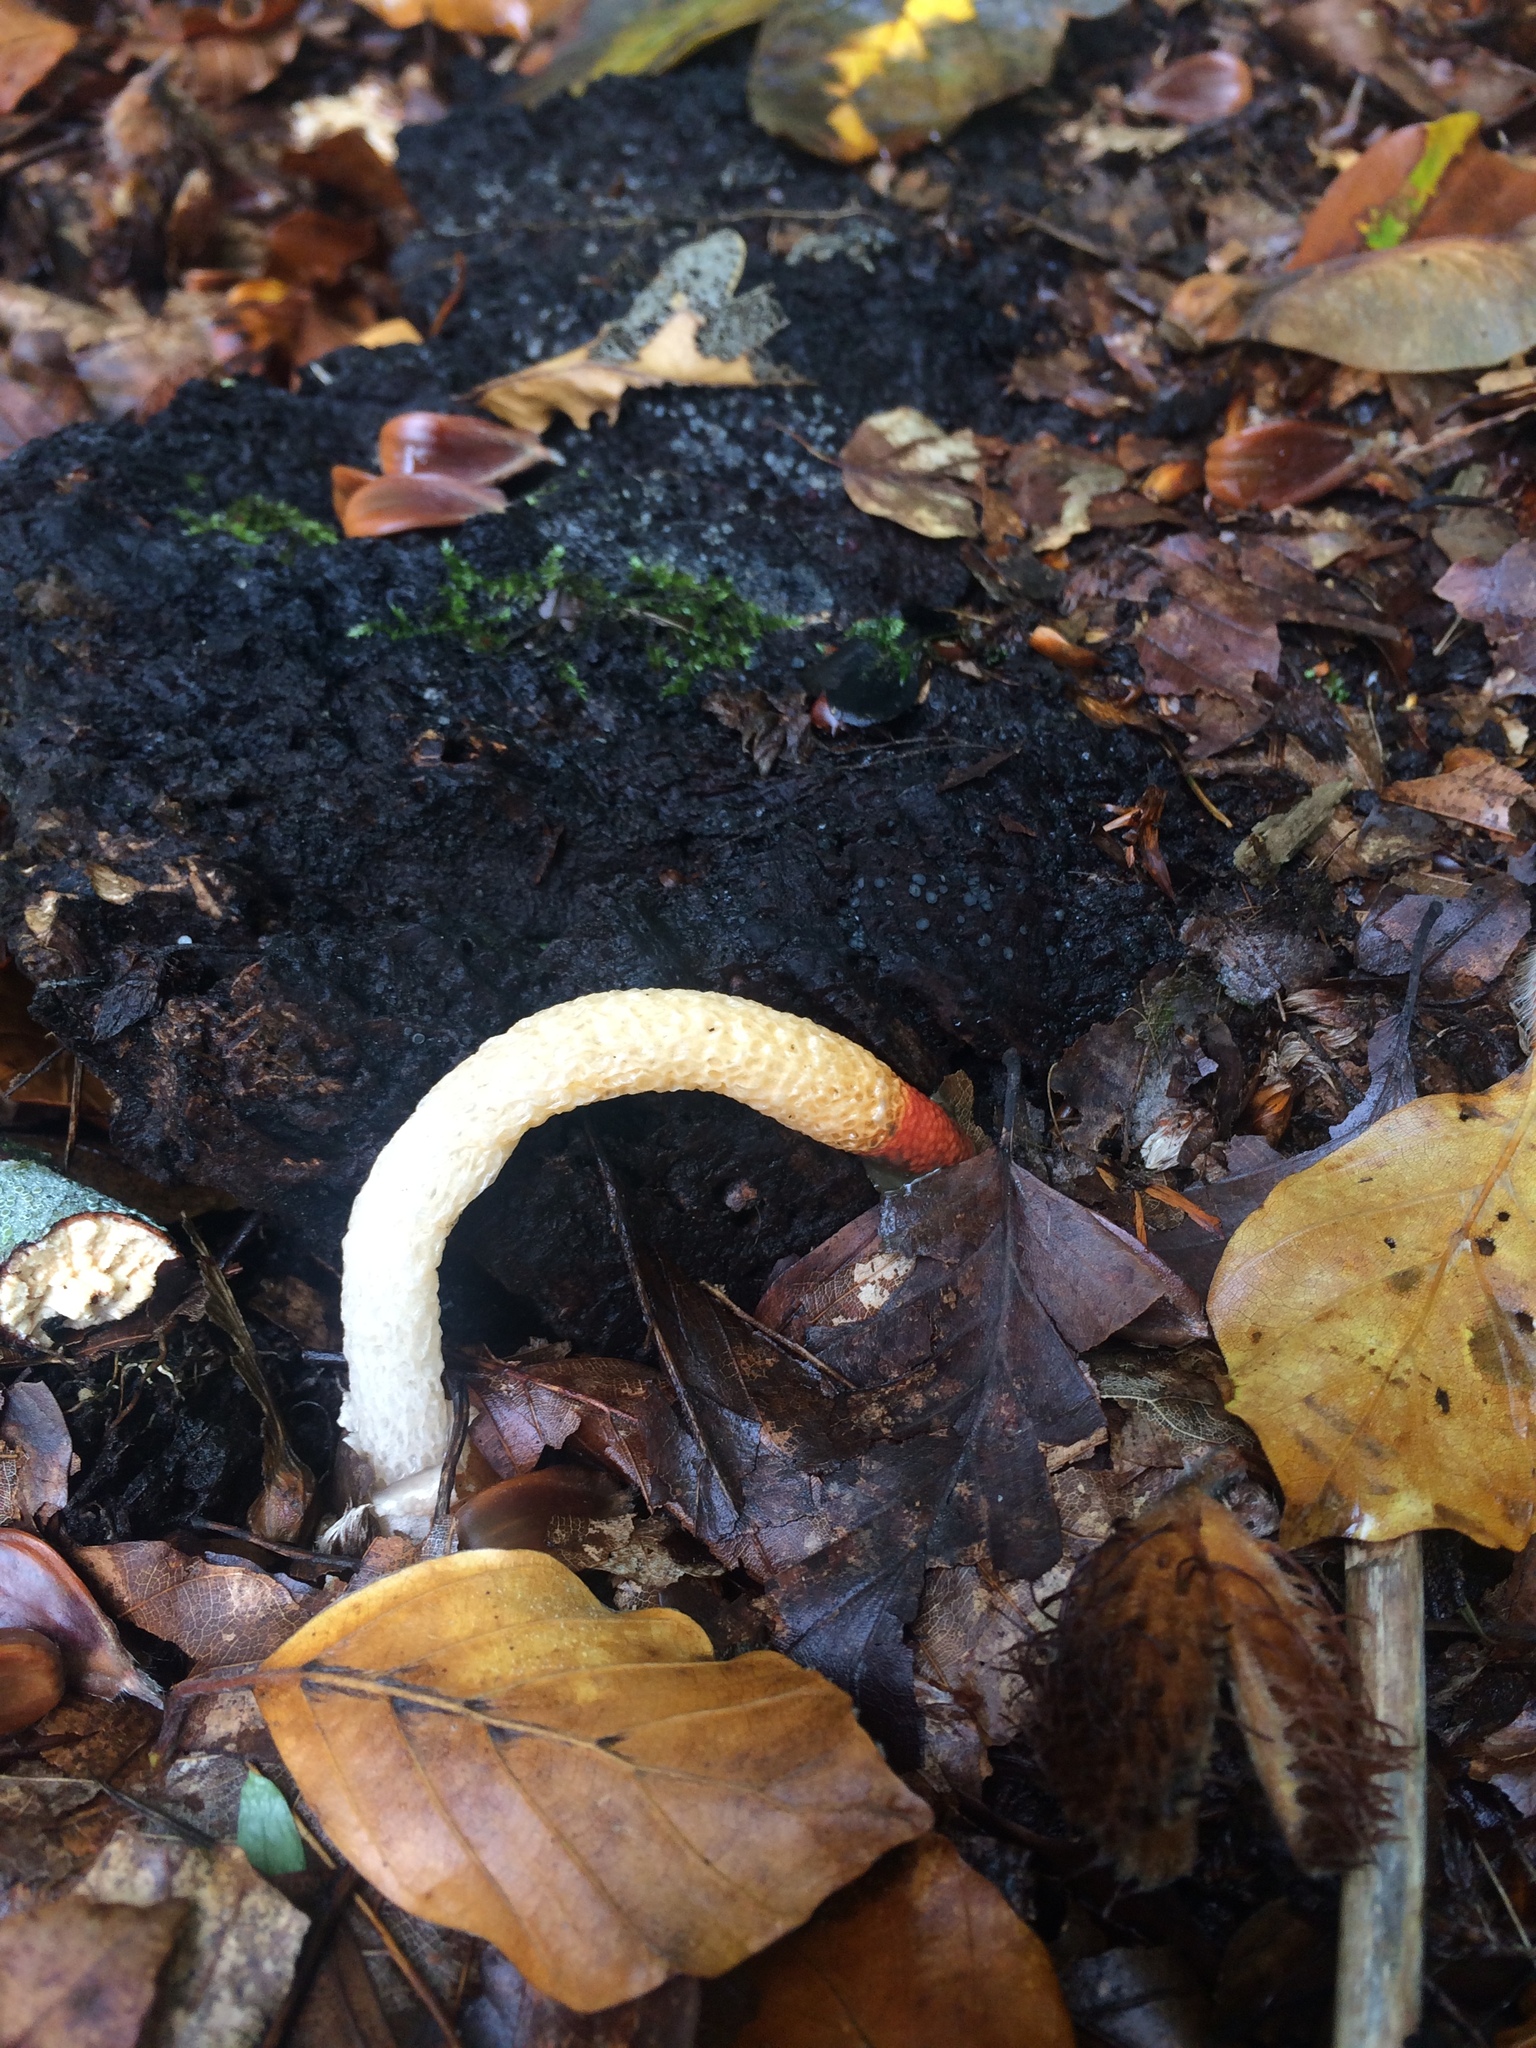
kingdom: Fungi
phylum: Basidiomycota
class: Agaricomycetes
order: Phallales
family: Phallaceae
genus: Mutinus
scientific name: Mutinus caninus
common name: Dog stinkhorn
